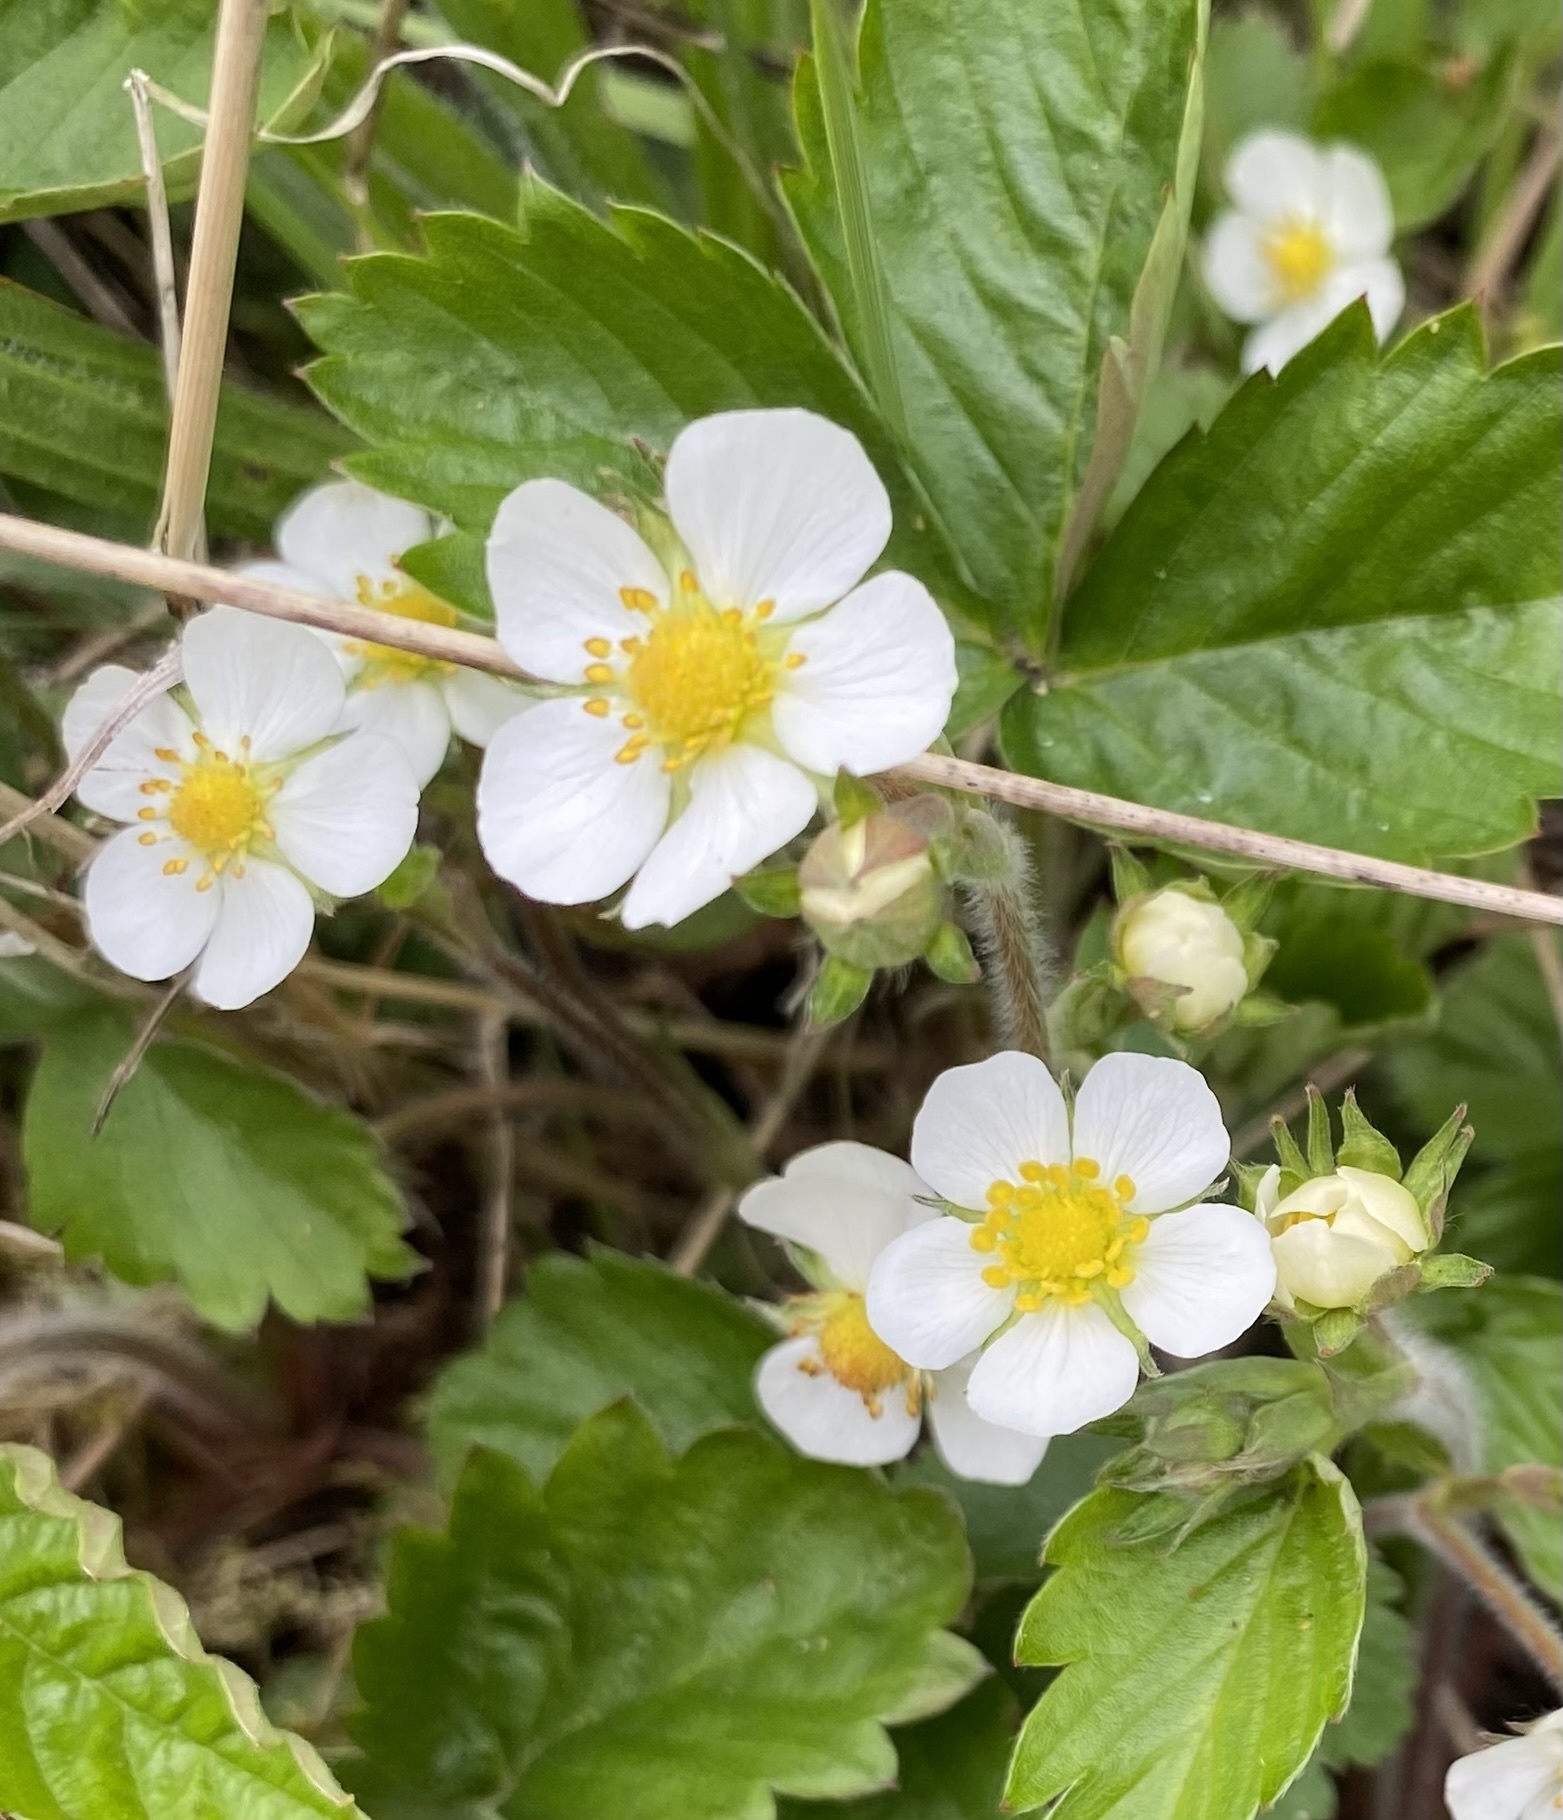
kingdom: Plantae
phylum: Tracheophyta
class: Magnoliopsida
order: Rosales
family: Rosaceae
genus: Fragaria
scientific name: Fragaria vesca
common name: Wild strawberry
